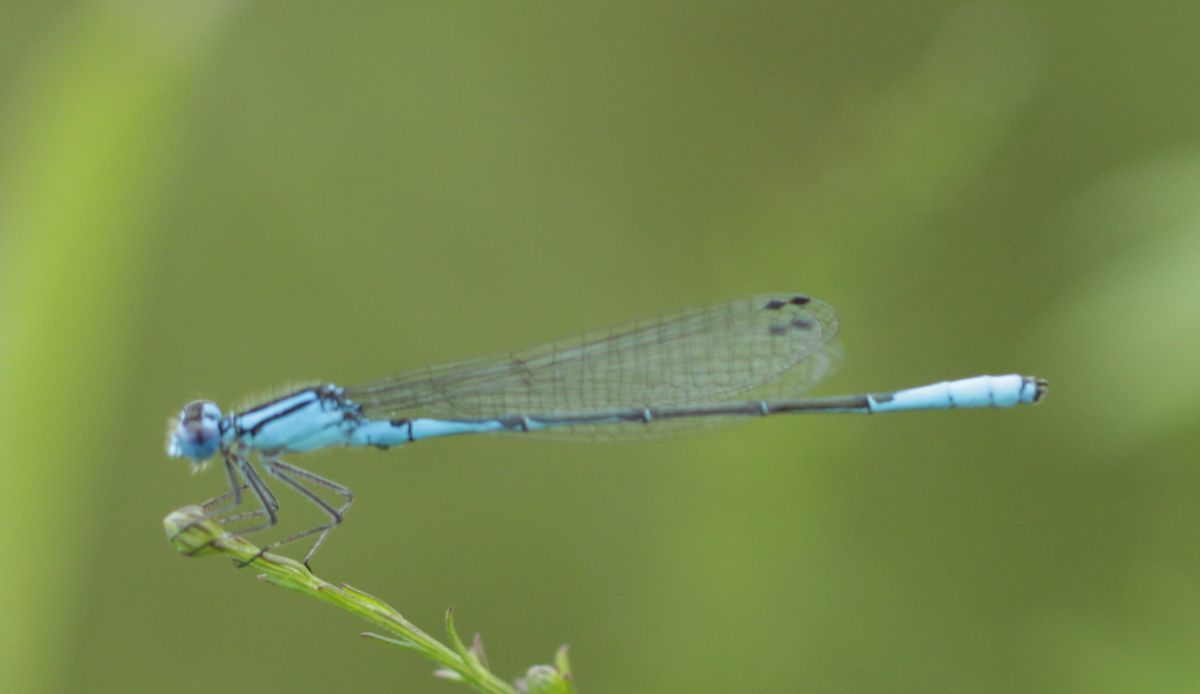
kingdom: Animalia
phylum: Arthropoda
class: Insecta
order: Odonata
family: Coenagrionidae
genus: Enallagma
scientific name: Enallagma aspersum
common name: Azure bluet
